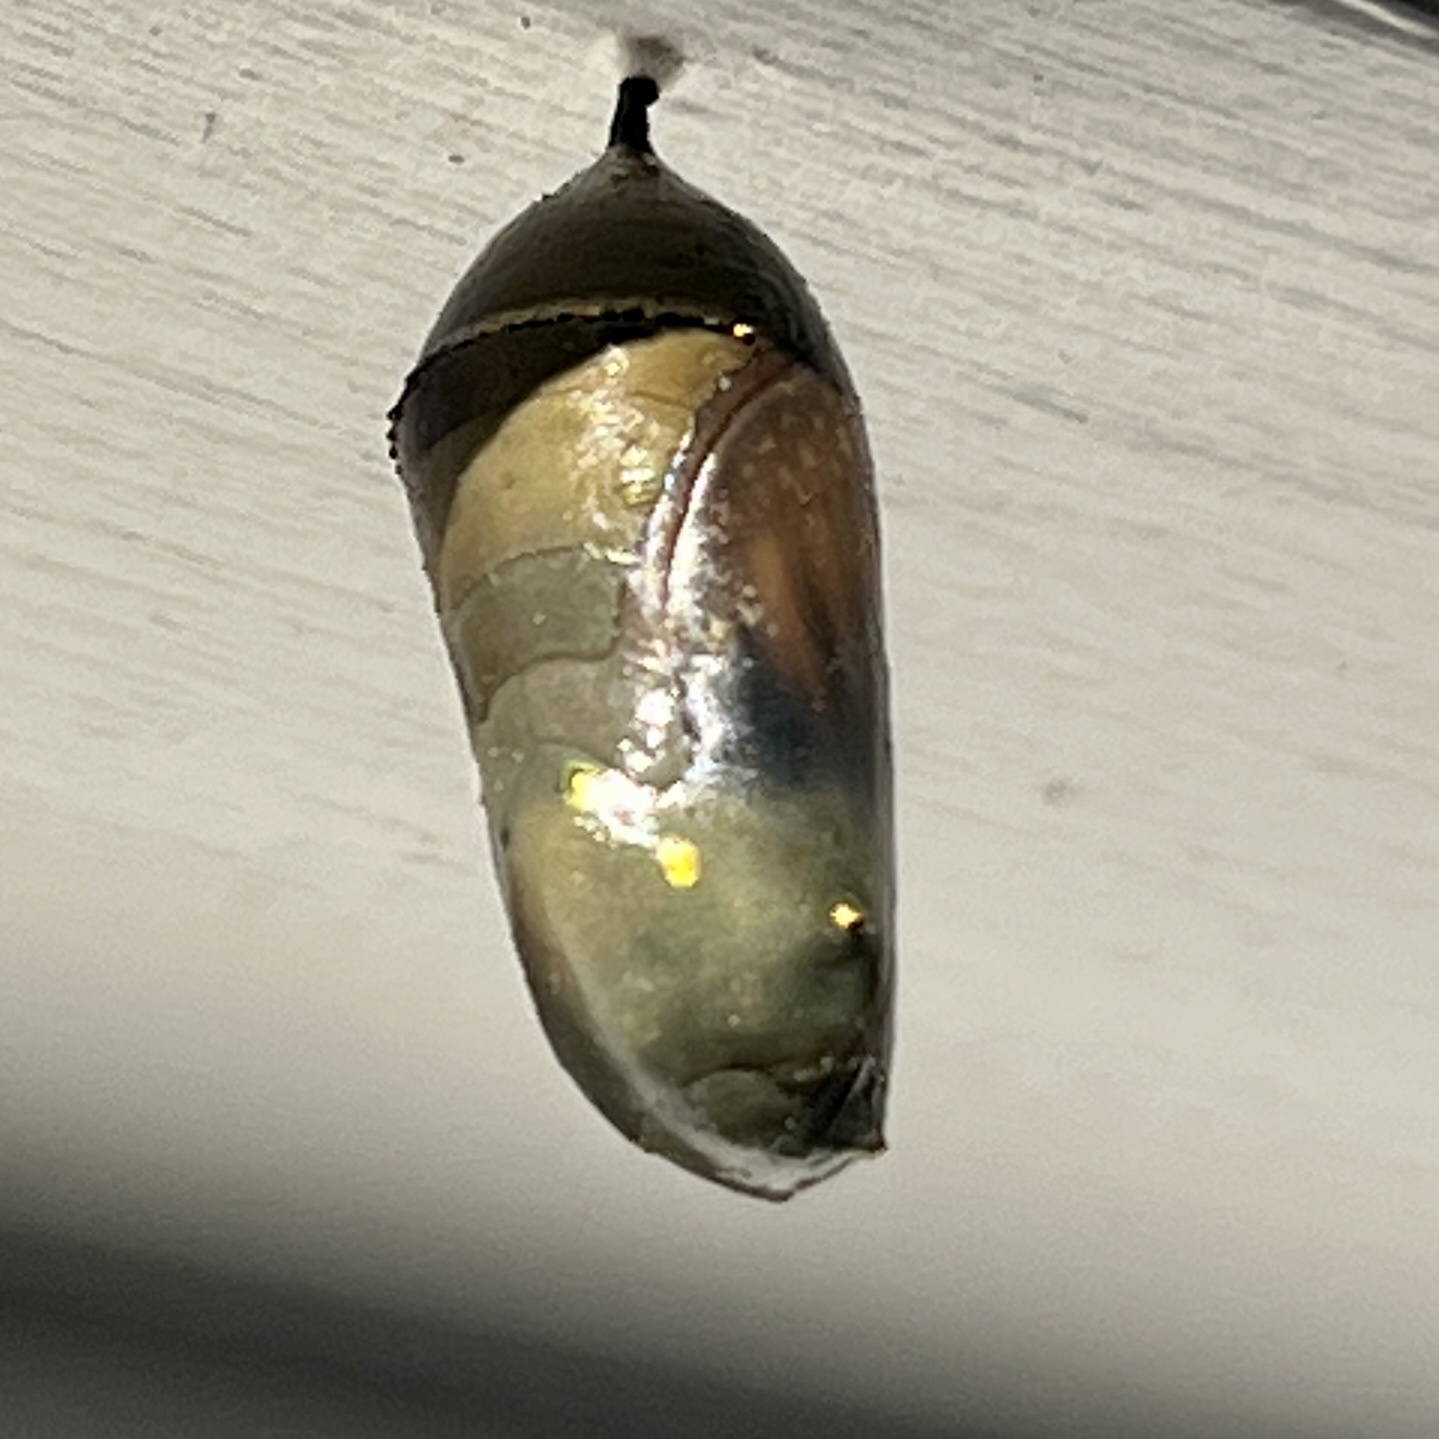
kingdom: Animalia
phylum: Arthropoda
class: Insecta
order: Lepidoptera
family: Nymphalidae
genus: Danaus
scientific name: Danaus plexippus
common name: Monarch
